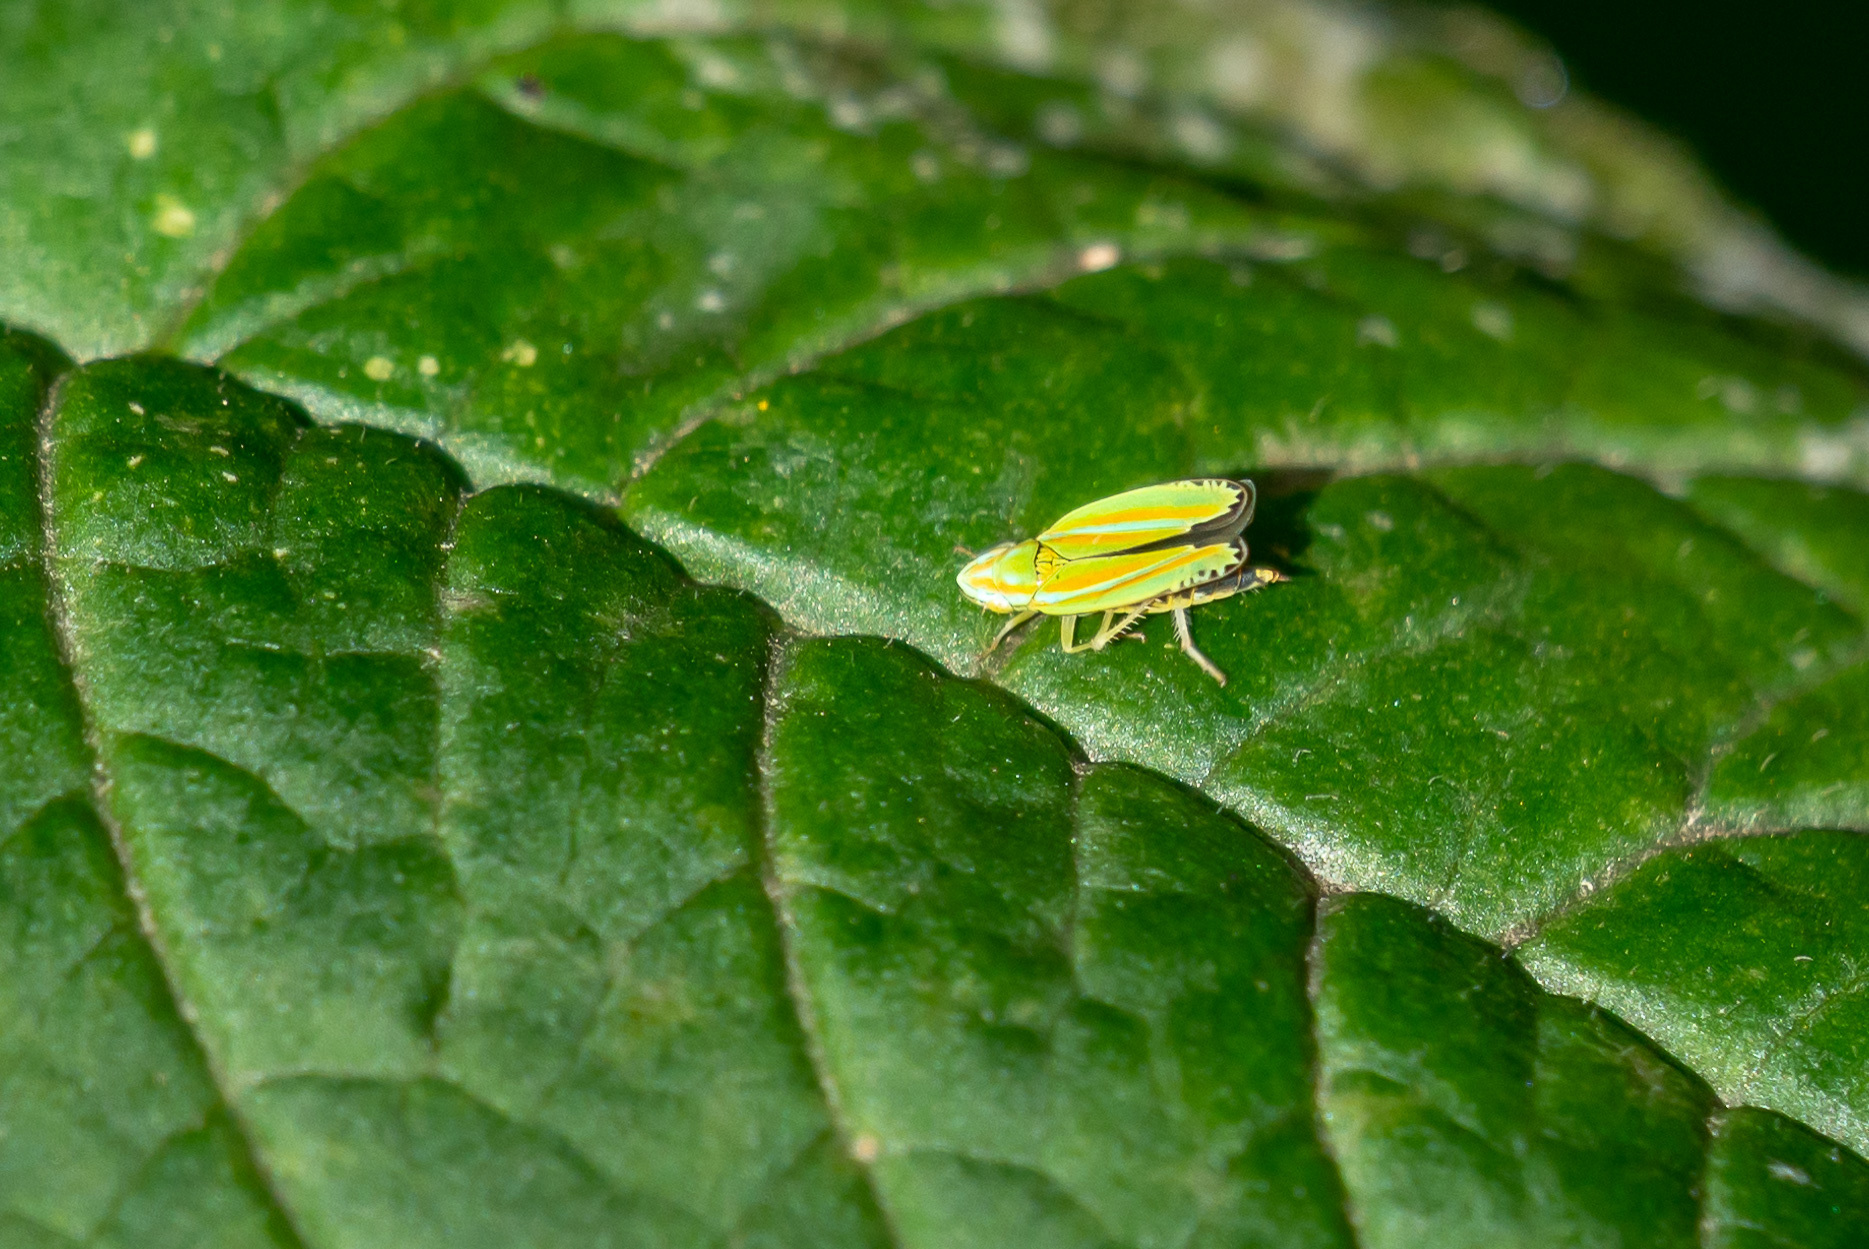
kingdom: Animalia
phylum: Arthropoda
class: Insecta
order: Hemiptera
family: Cicadellidae
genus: Graphocephala
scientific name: Graphocephala versuta
